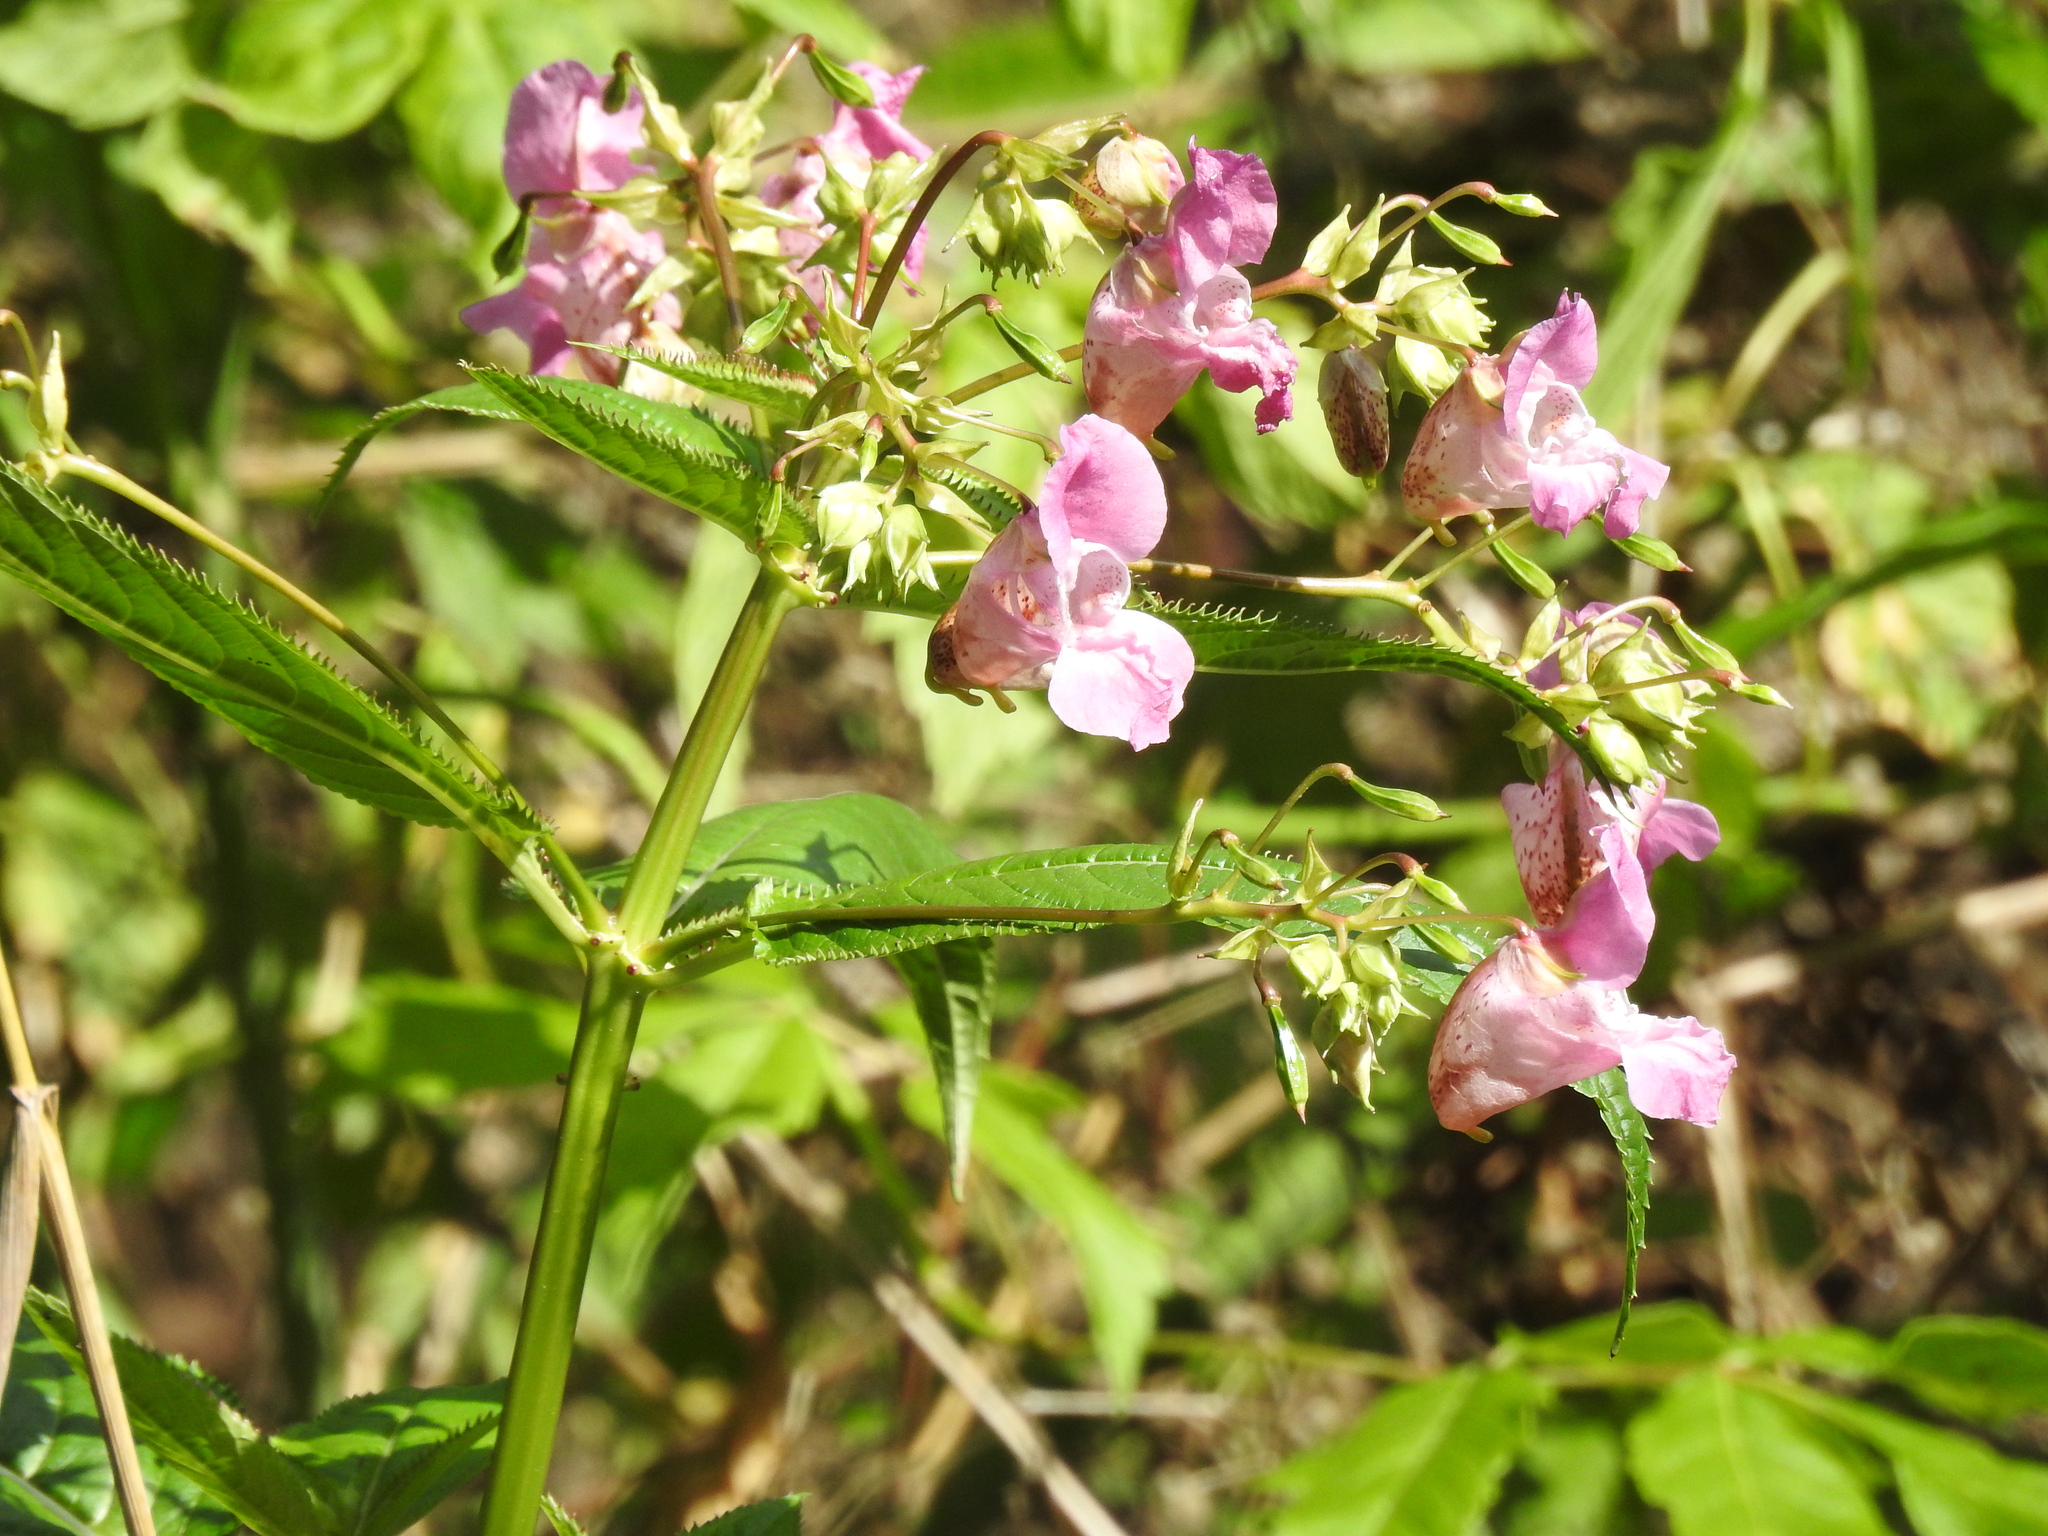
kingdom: Plantae
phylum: Tracheophyta
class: Magnoliopsida
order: Ericales
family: Balsaminaceae
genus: Impatiens
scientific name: Impatiens glandulifera
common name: Himalayan balsam
